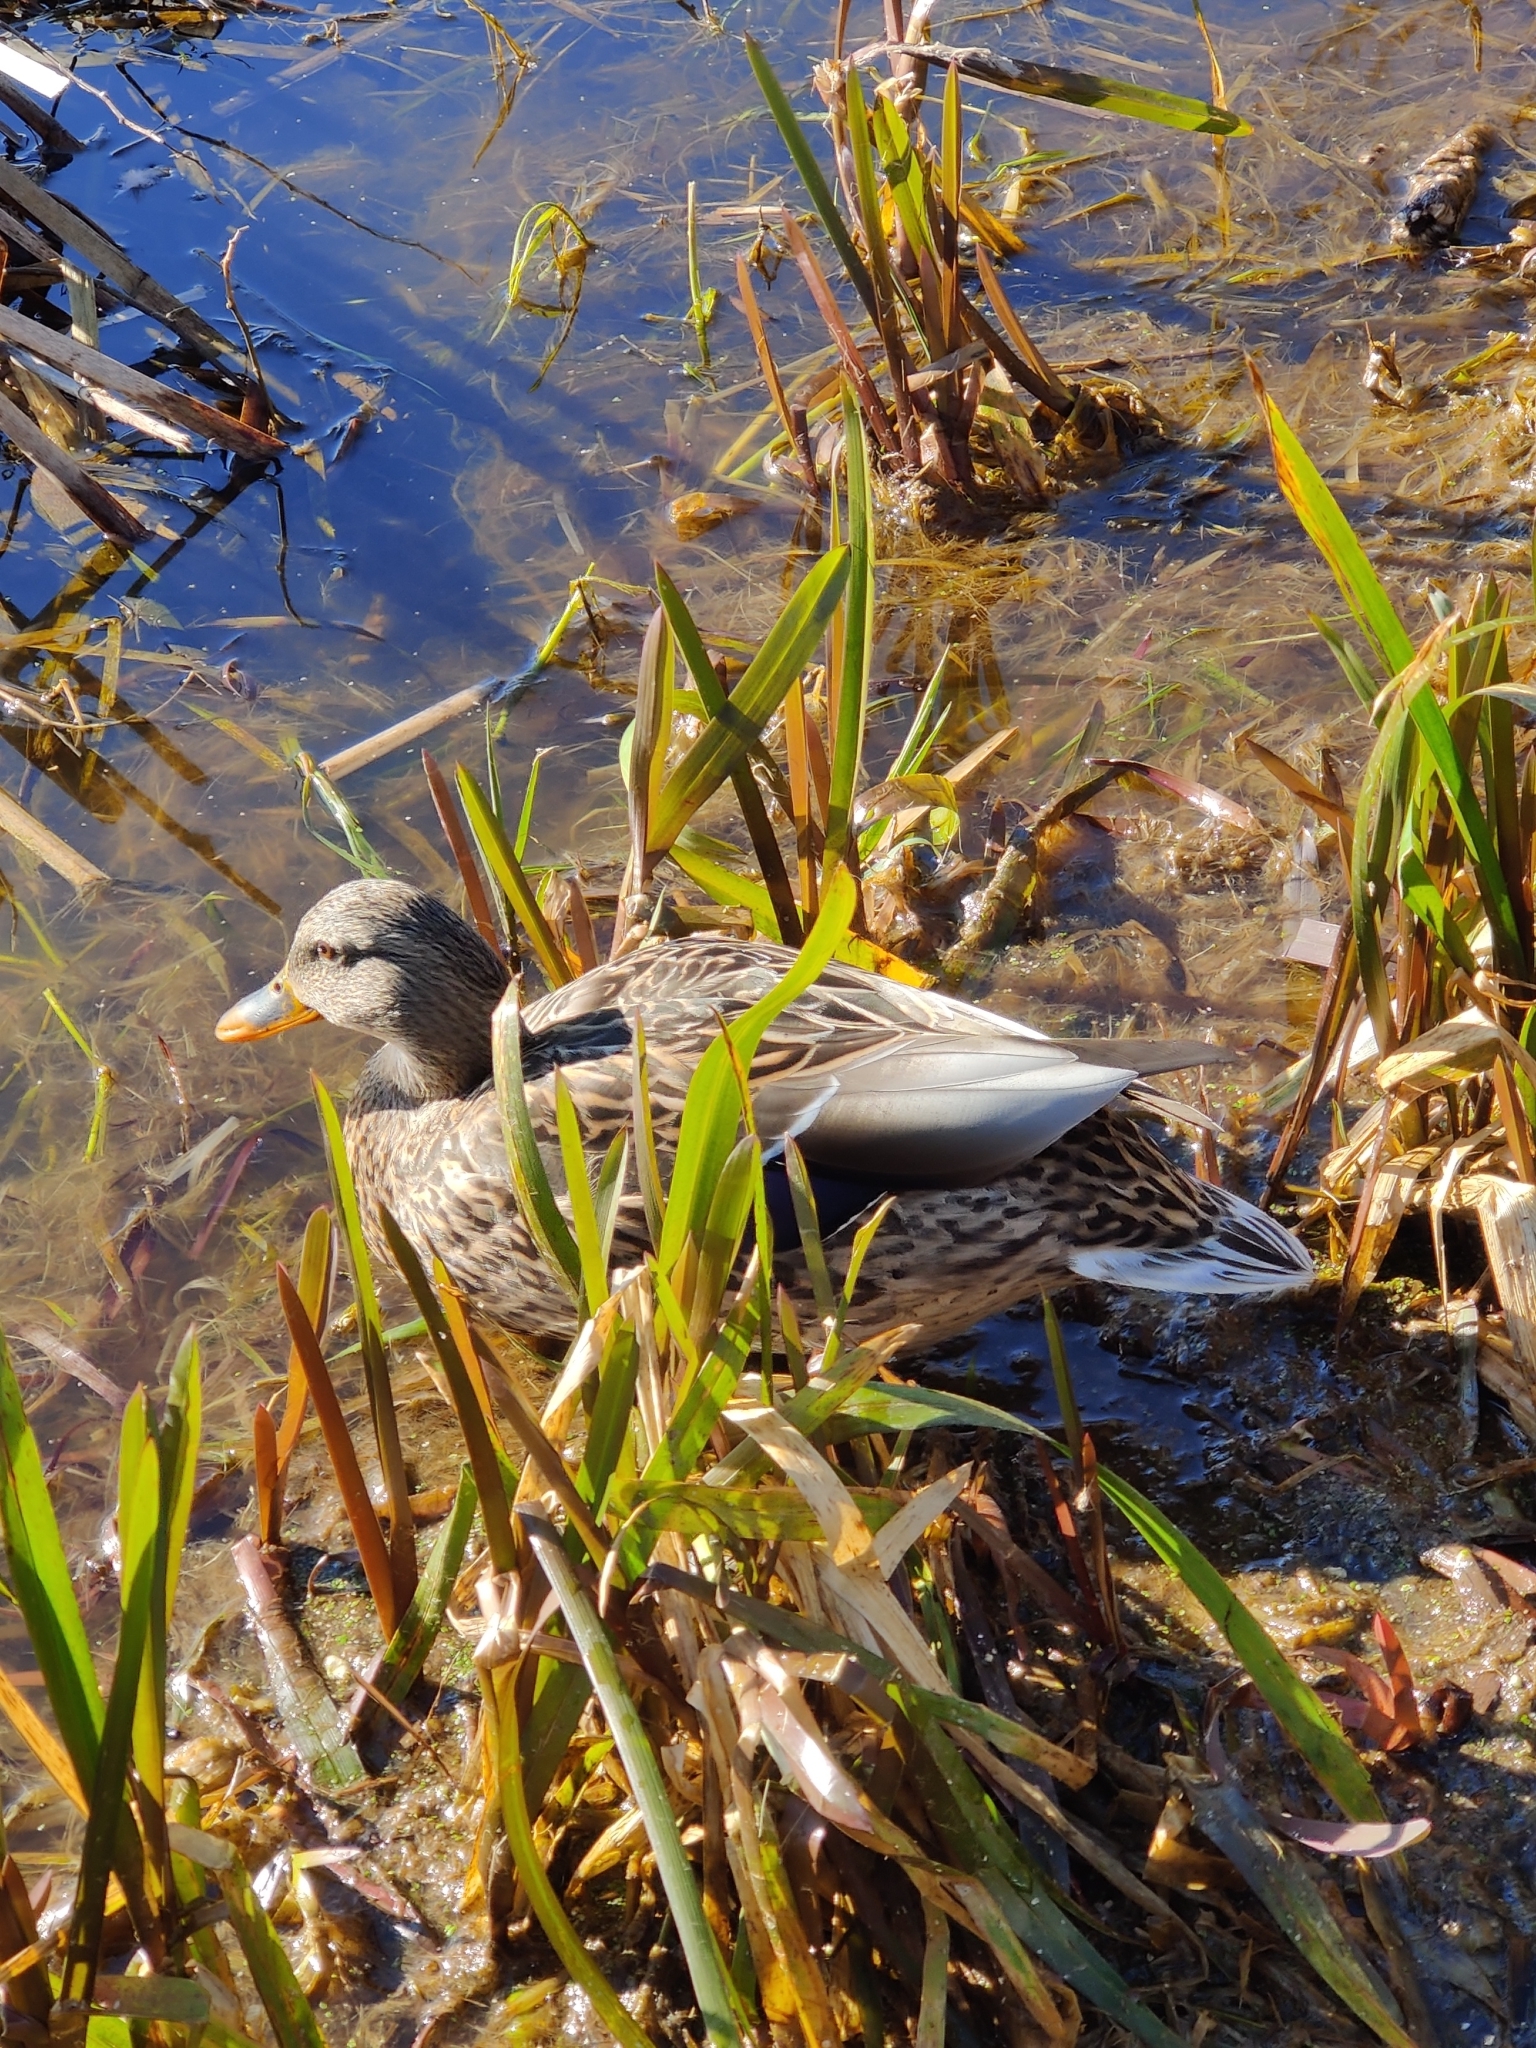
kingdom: Animalia
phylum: Chordata
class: Aves
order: Anseriformes
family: Anatidae
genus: Anas
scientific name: Anas platyrhynchos
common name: Mallard
